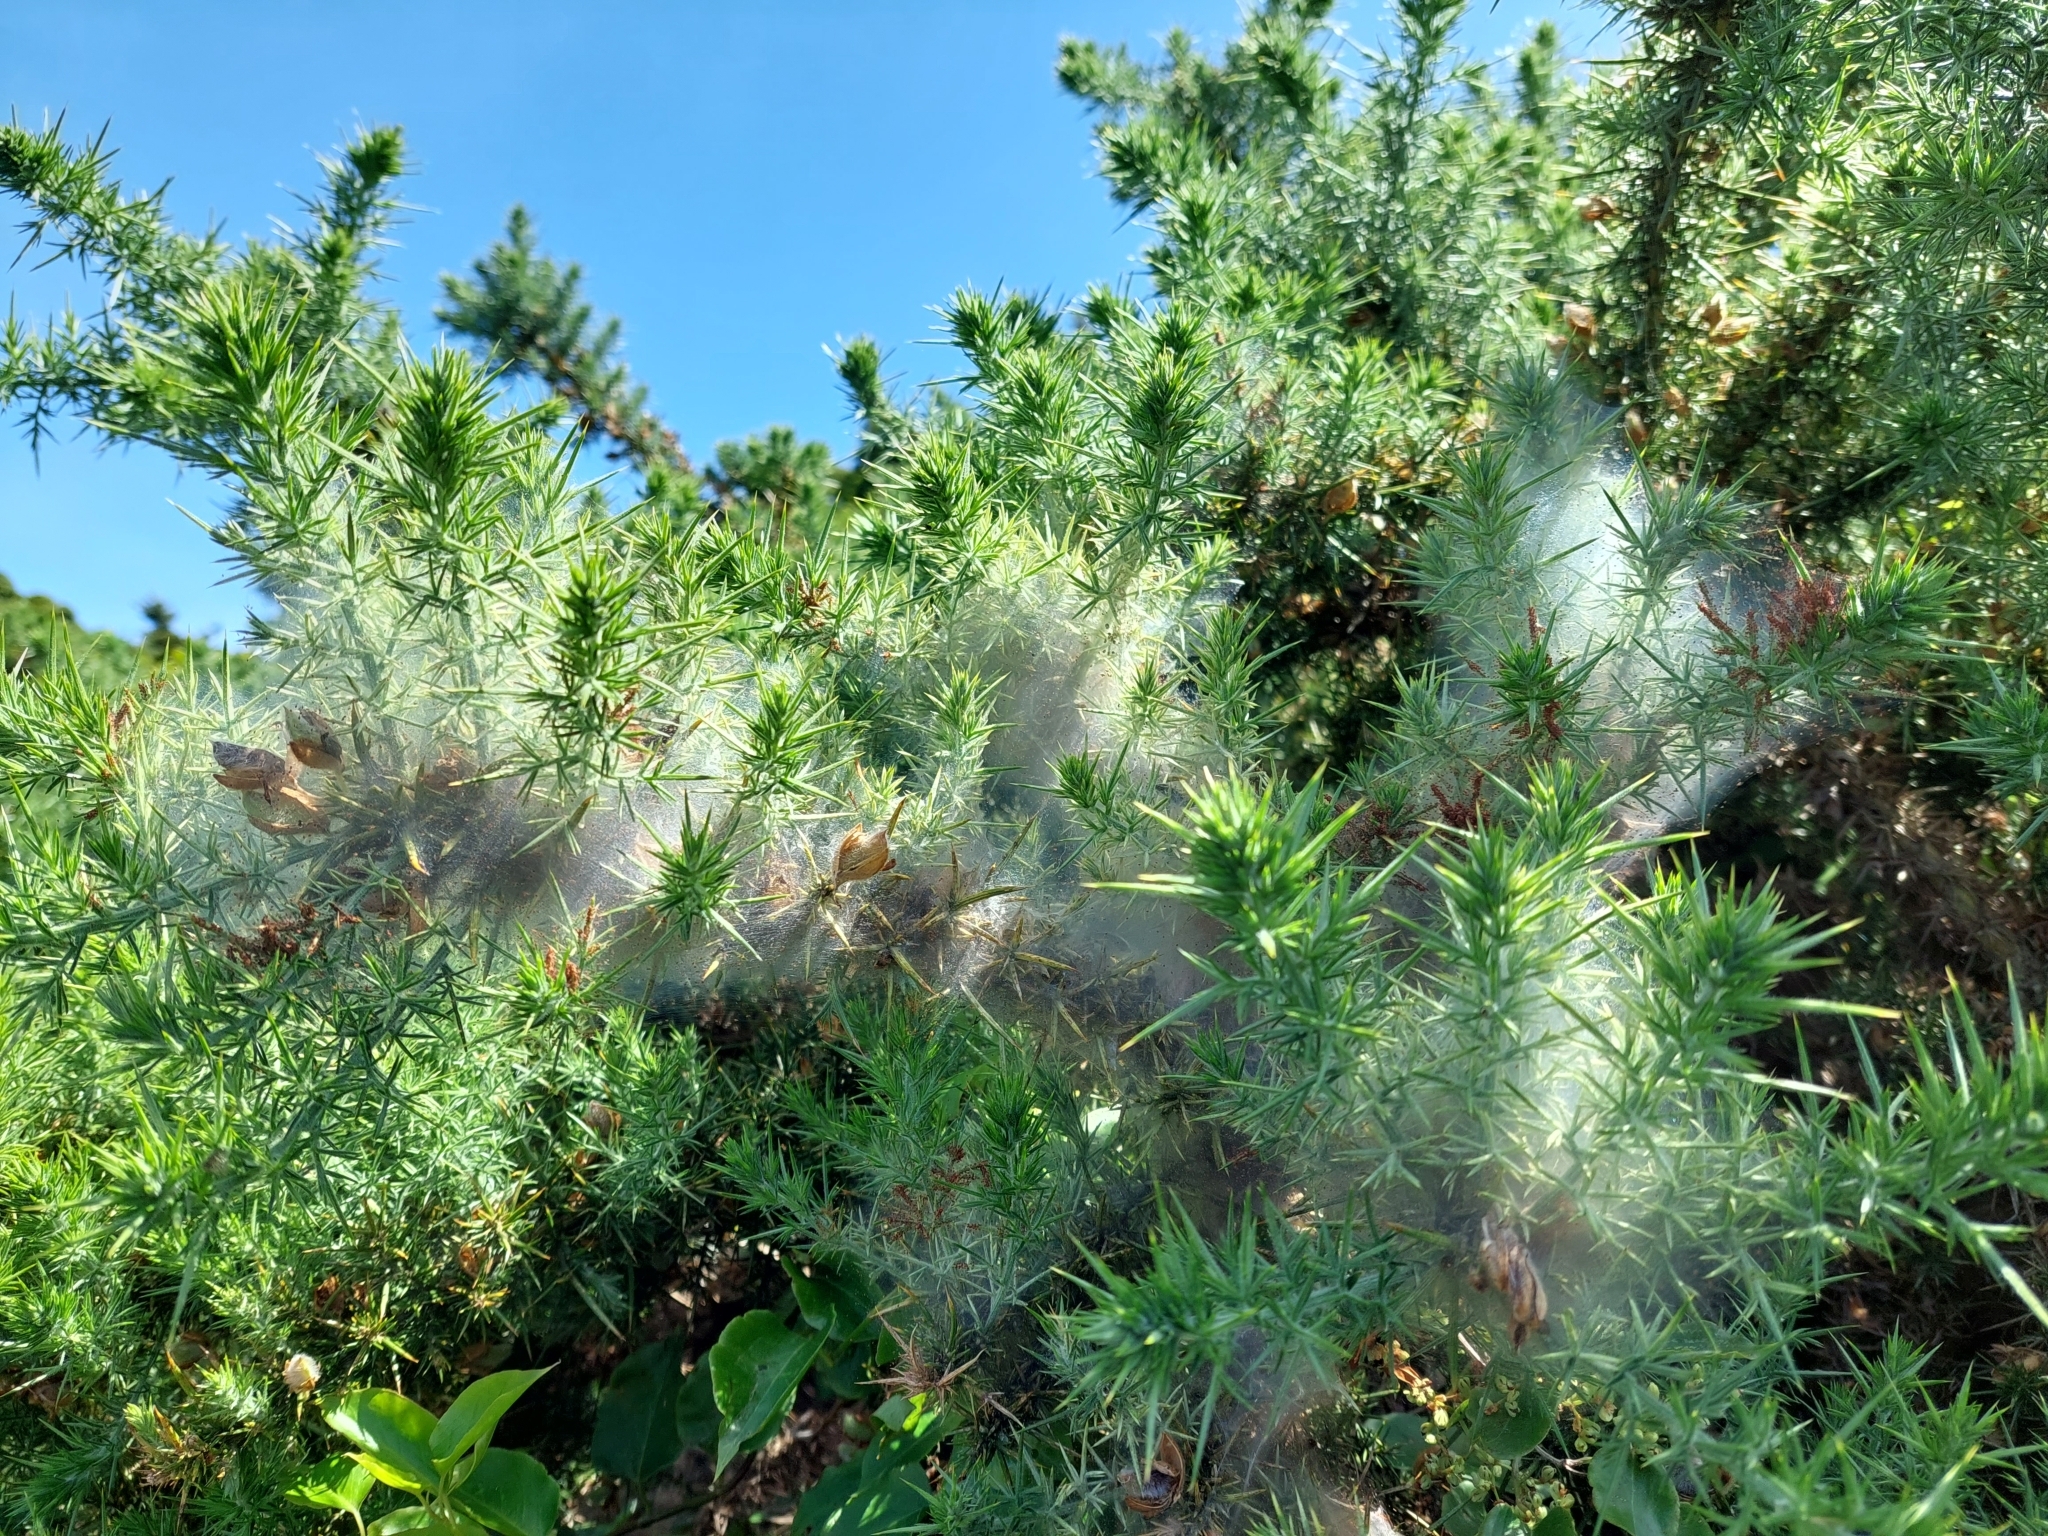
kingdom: Animalia
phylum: Arthropoda
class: Arachnida
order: Trombidiformes
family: Tetranychidae
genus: Tetranychus
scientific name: Tetranychus lintearius
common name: Gorse spider mite
